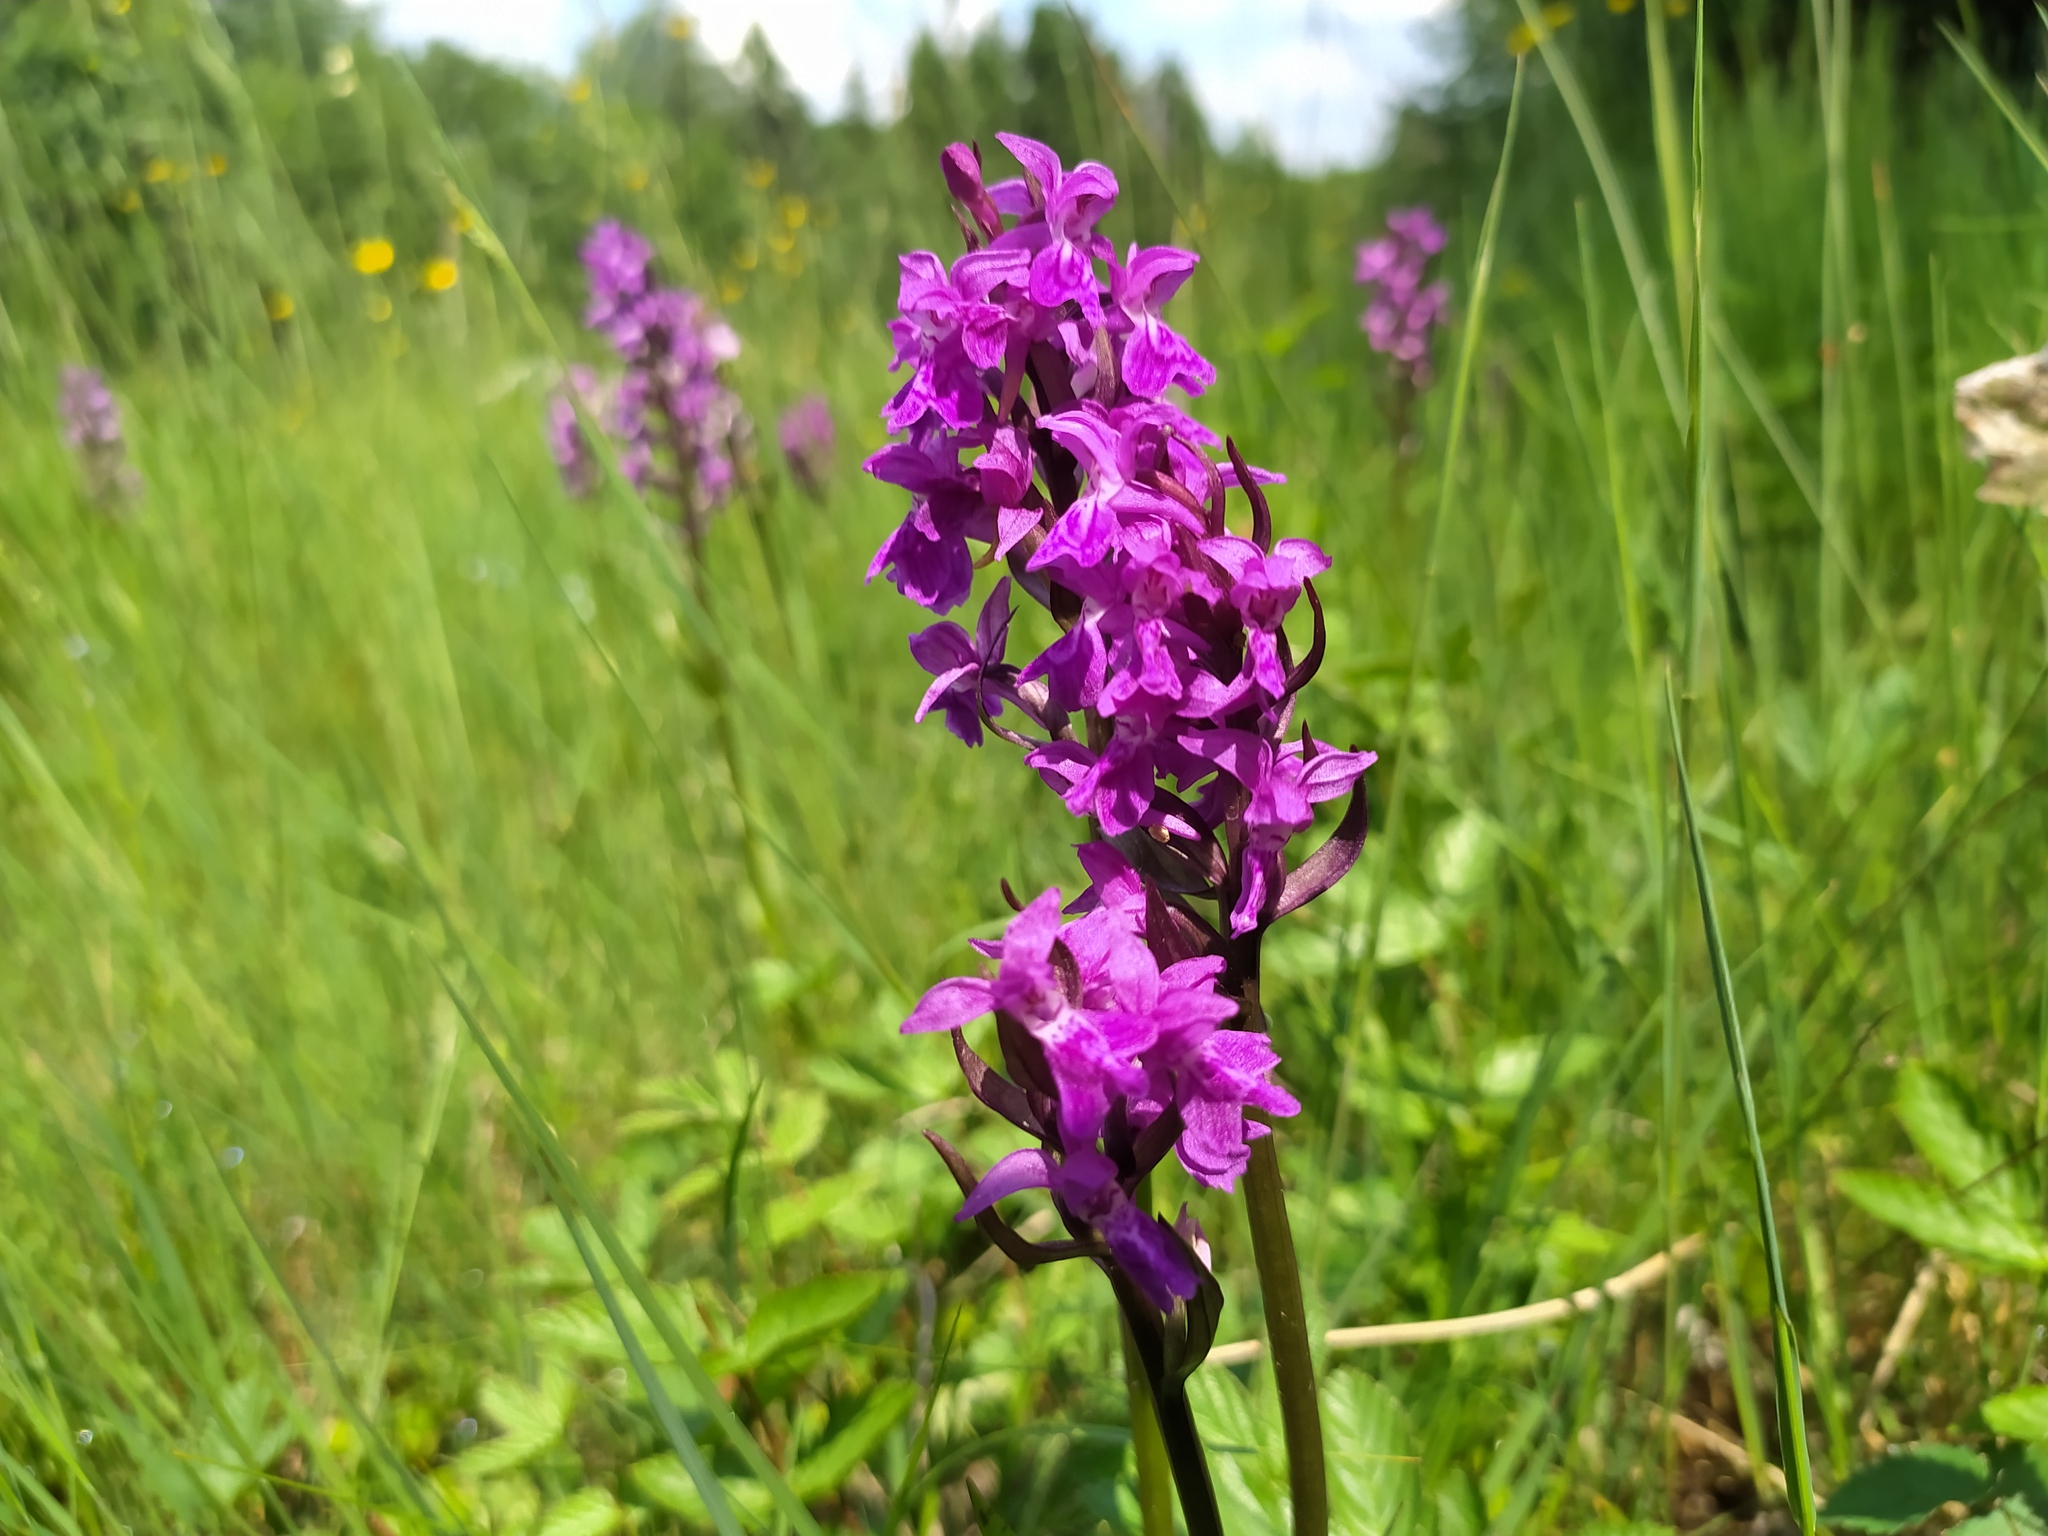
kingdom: Plantae
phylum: Tracheophyta
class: Liliopsida
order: Asparagales
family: Orchidaceae
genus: Dactylorhiza
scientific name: Dactylorhiza majalis
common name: Marsh orchid
